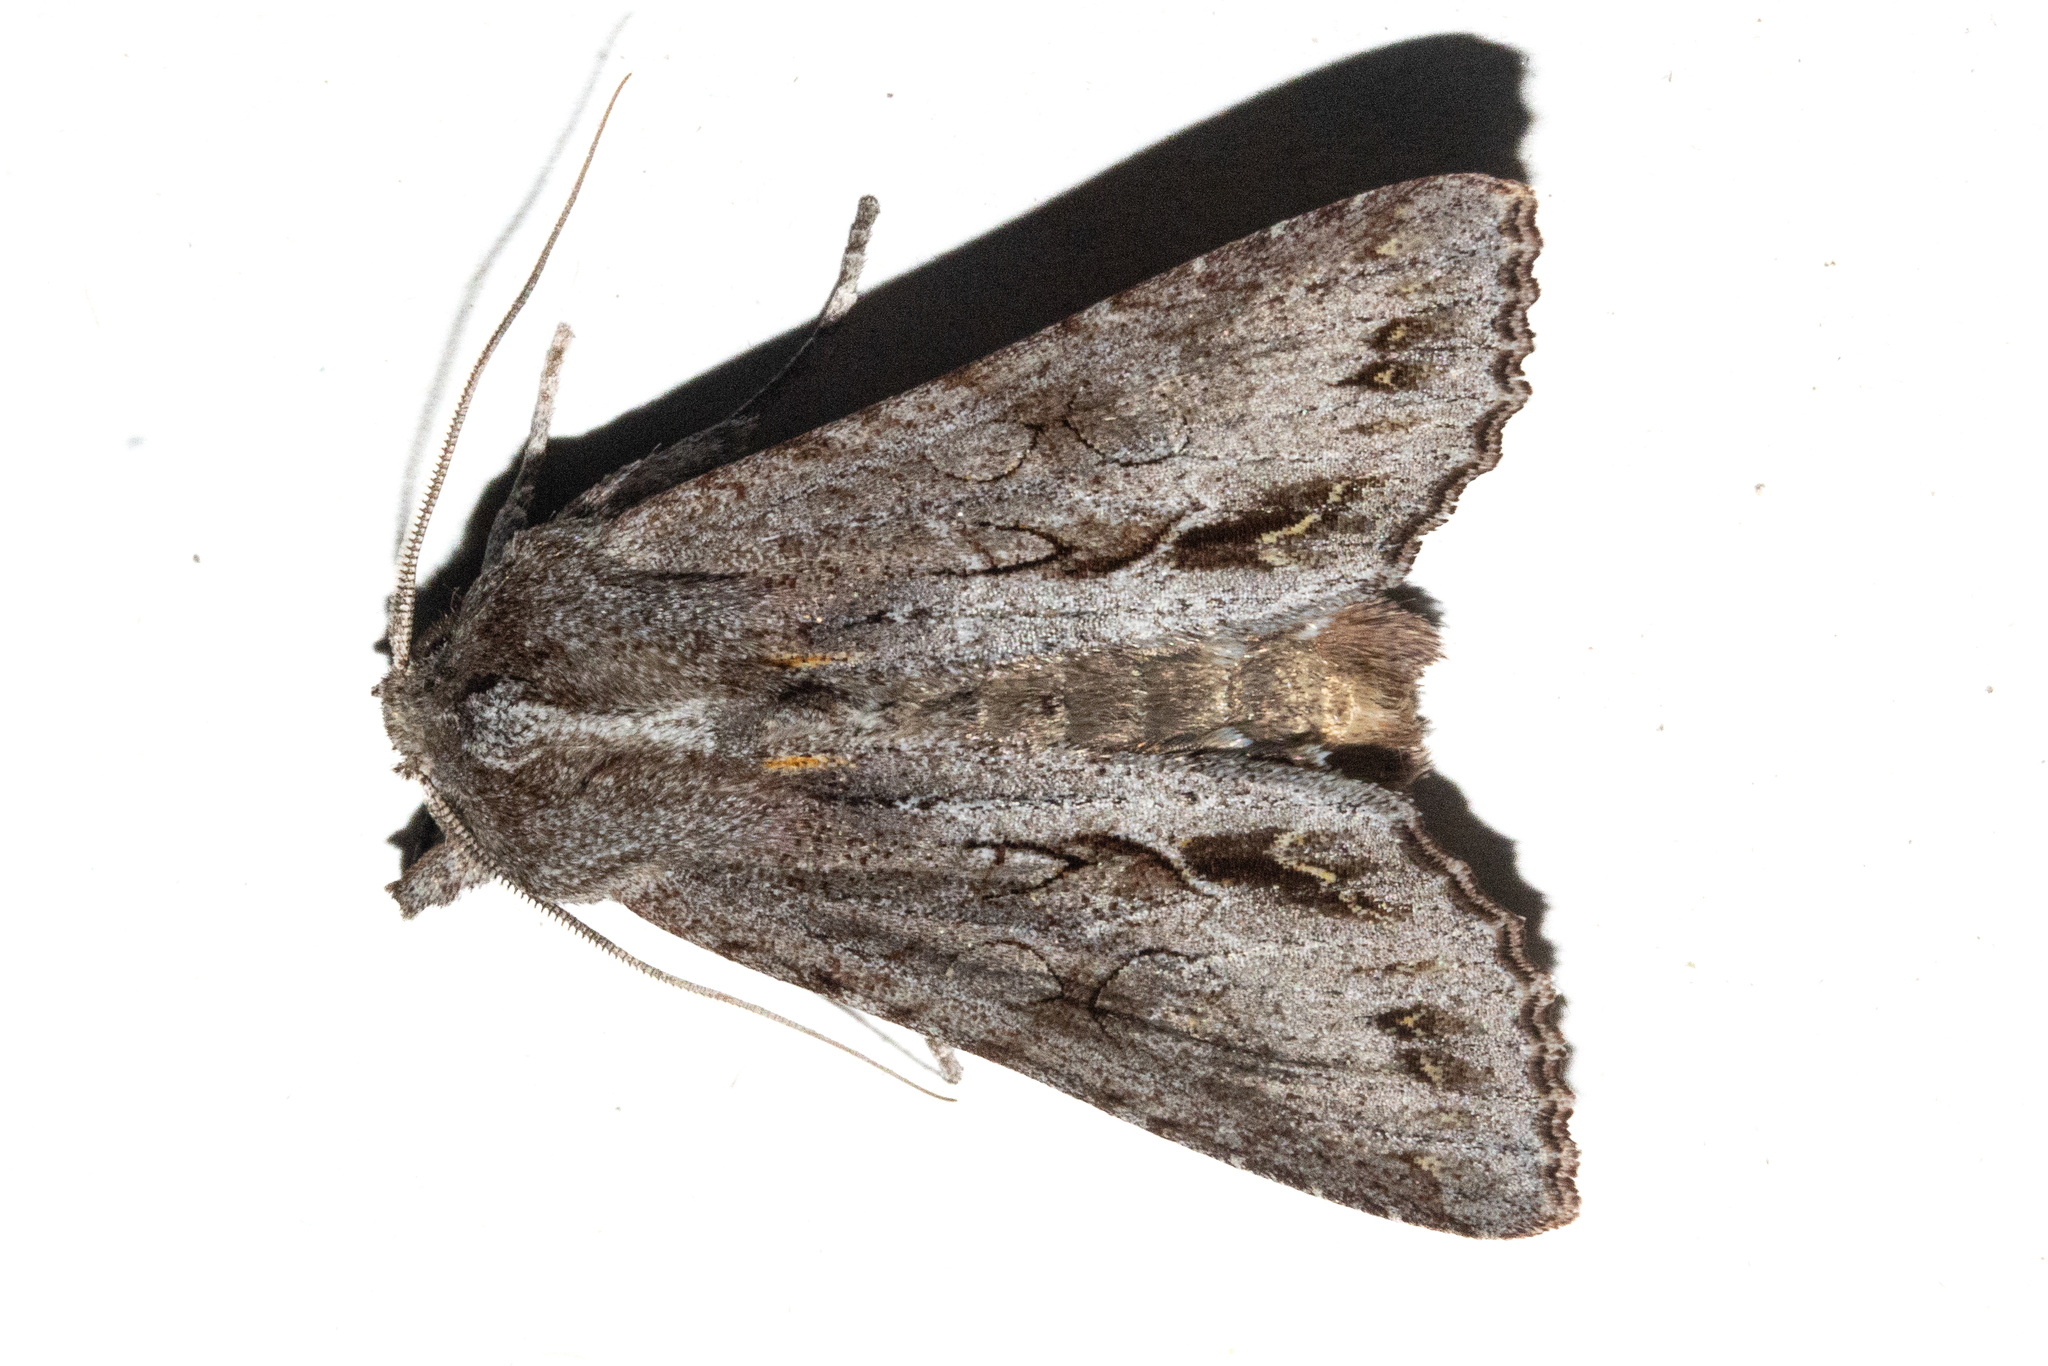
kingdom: Animalia
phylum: Arthropoda
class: Insecta
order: Lepidoptera
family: Noctuidae
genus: Ichneutica
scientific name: Ichneutica
